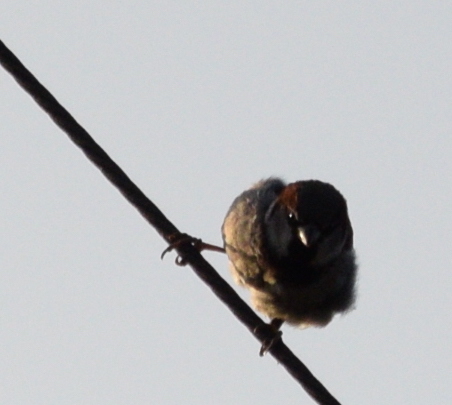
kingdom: Animalia
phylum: Chordata
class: Aves
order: Passeriformes
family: Passeridae
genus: Passer
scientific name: Passer domesticus
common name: House sparrow
